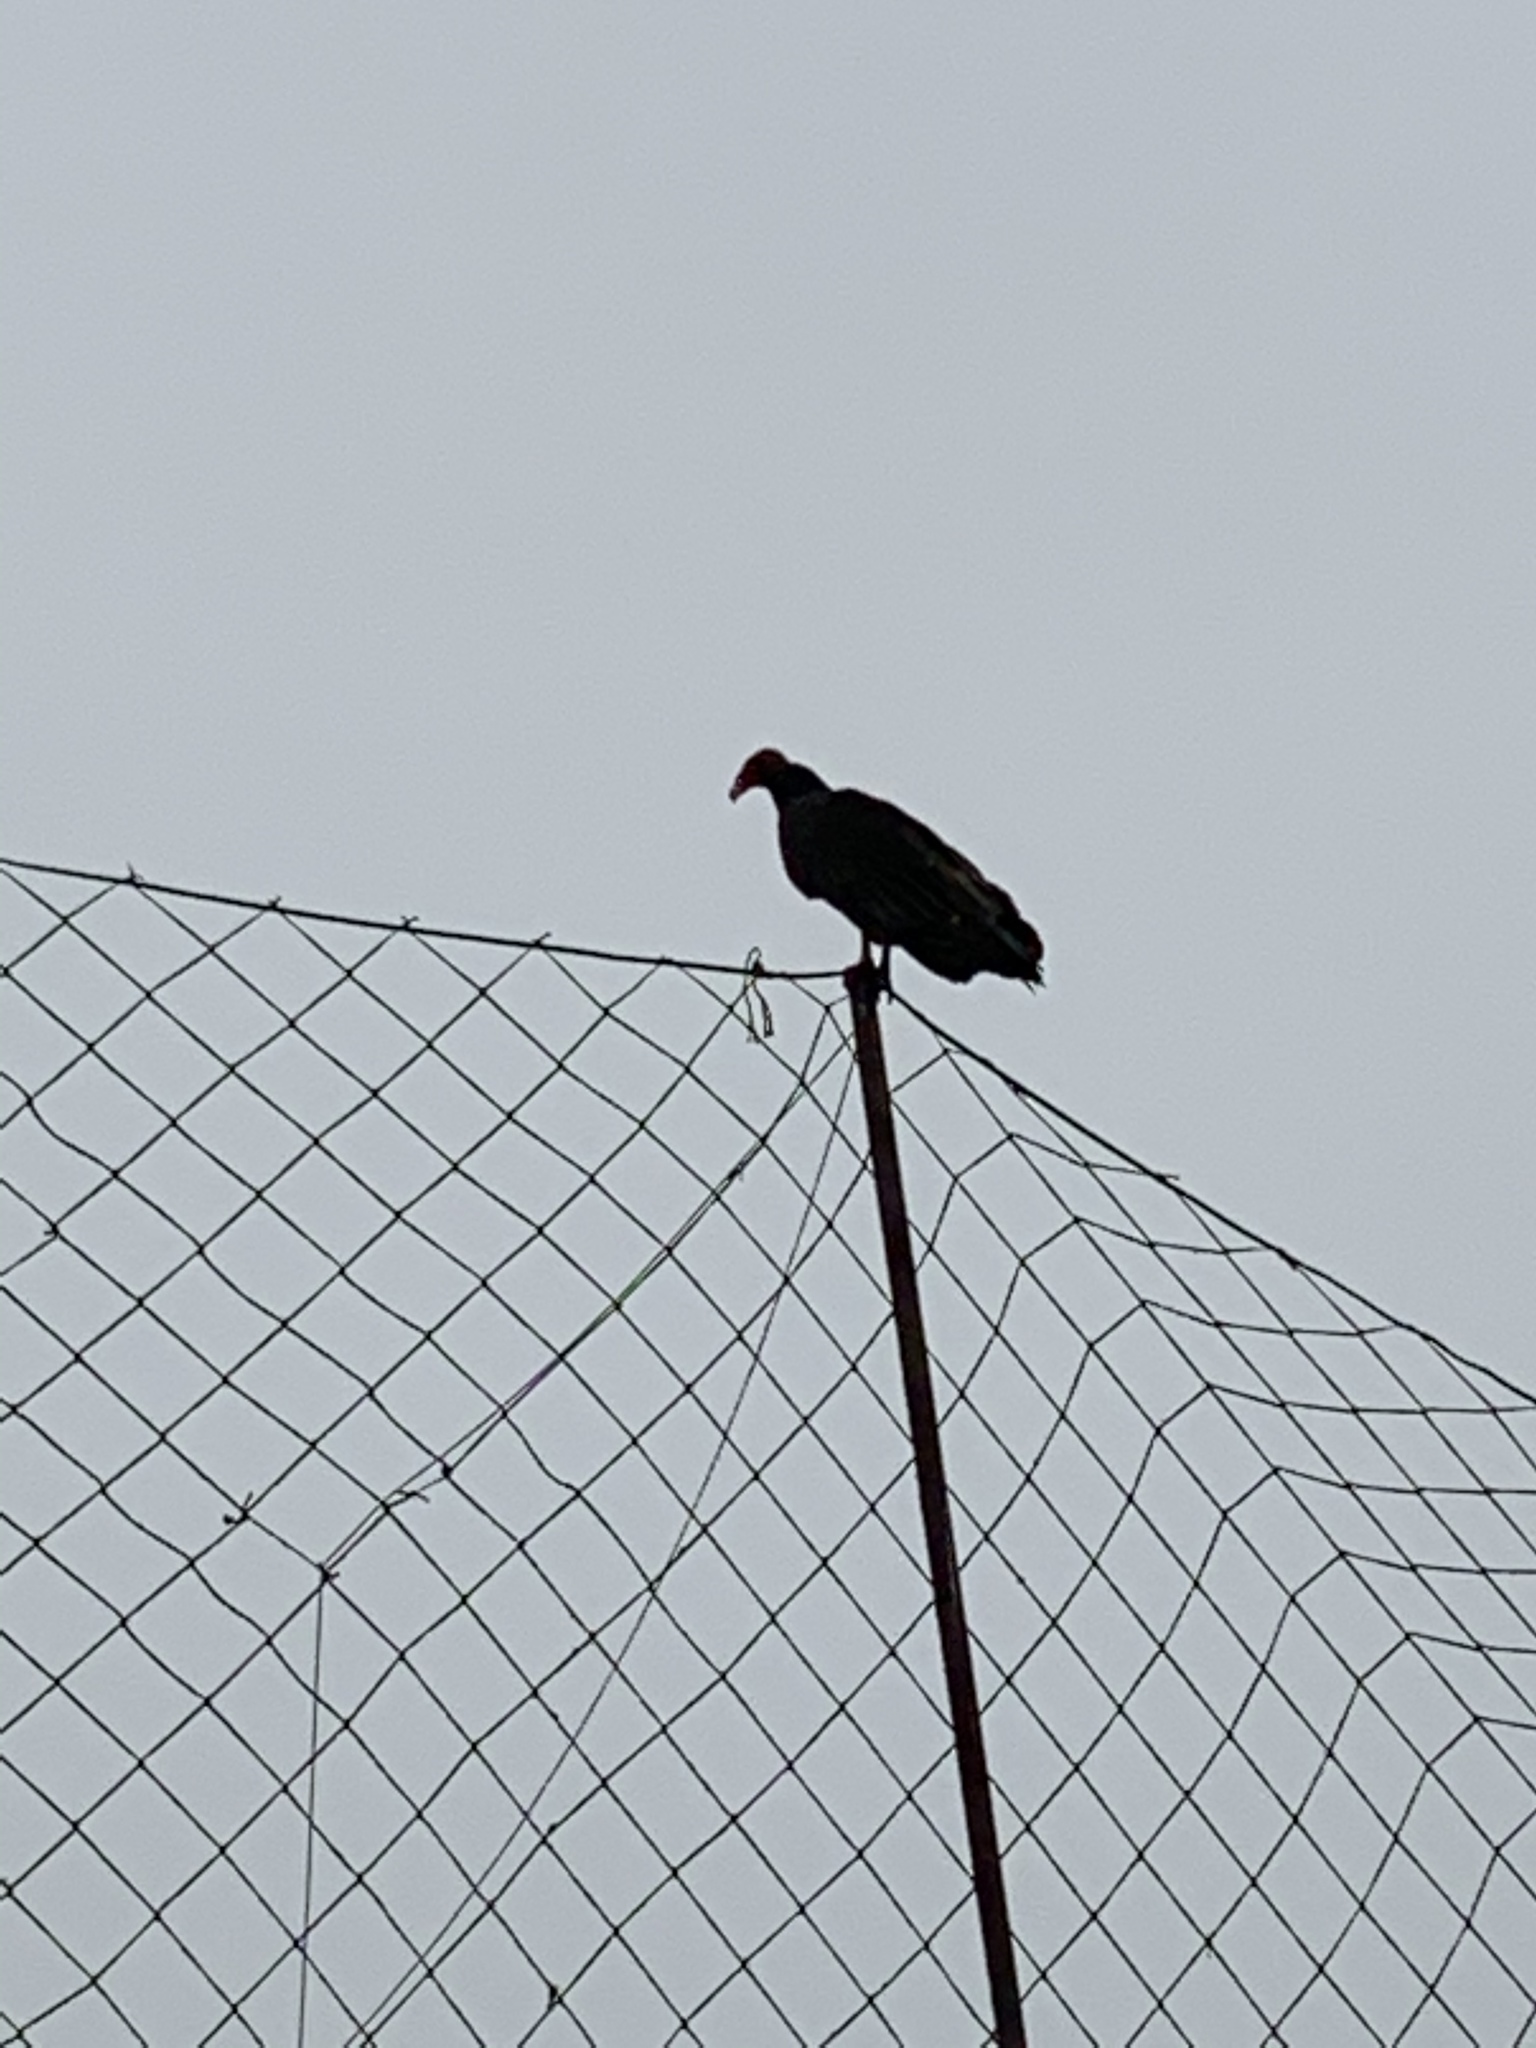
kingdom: Animalia
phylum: Chordata
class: Aves
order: Accipitriformes
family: Cathartidae
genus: Cathartes
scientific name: Cathartes aura
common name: Turkey vulture
